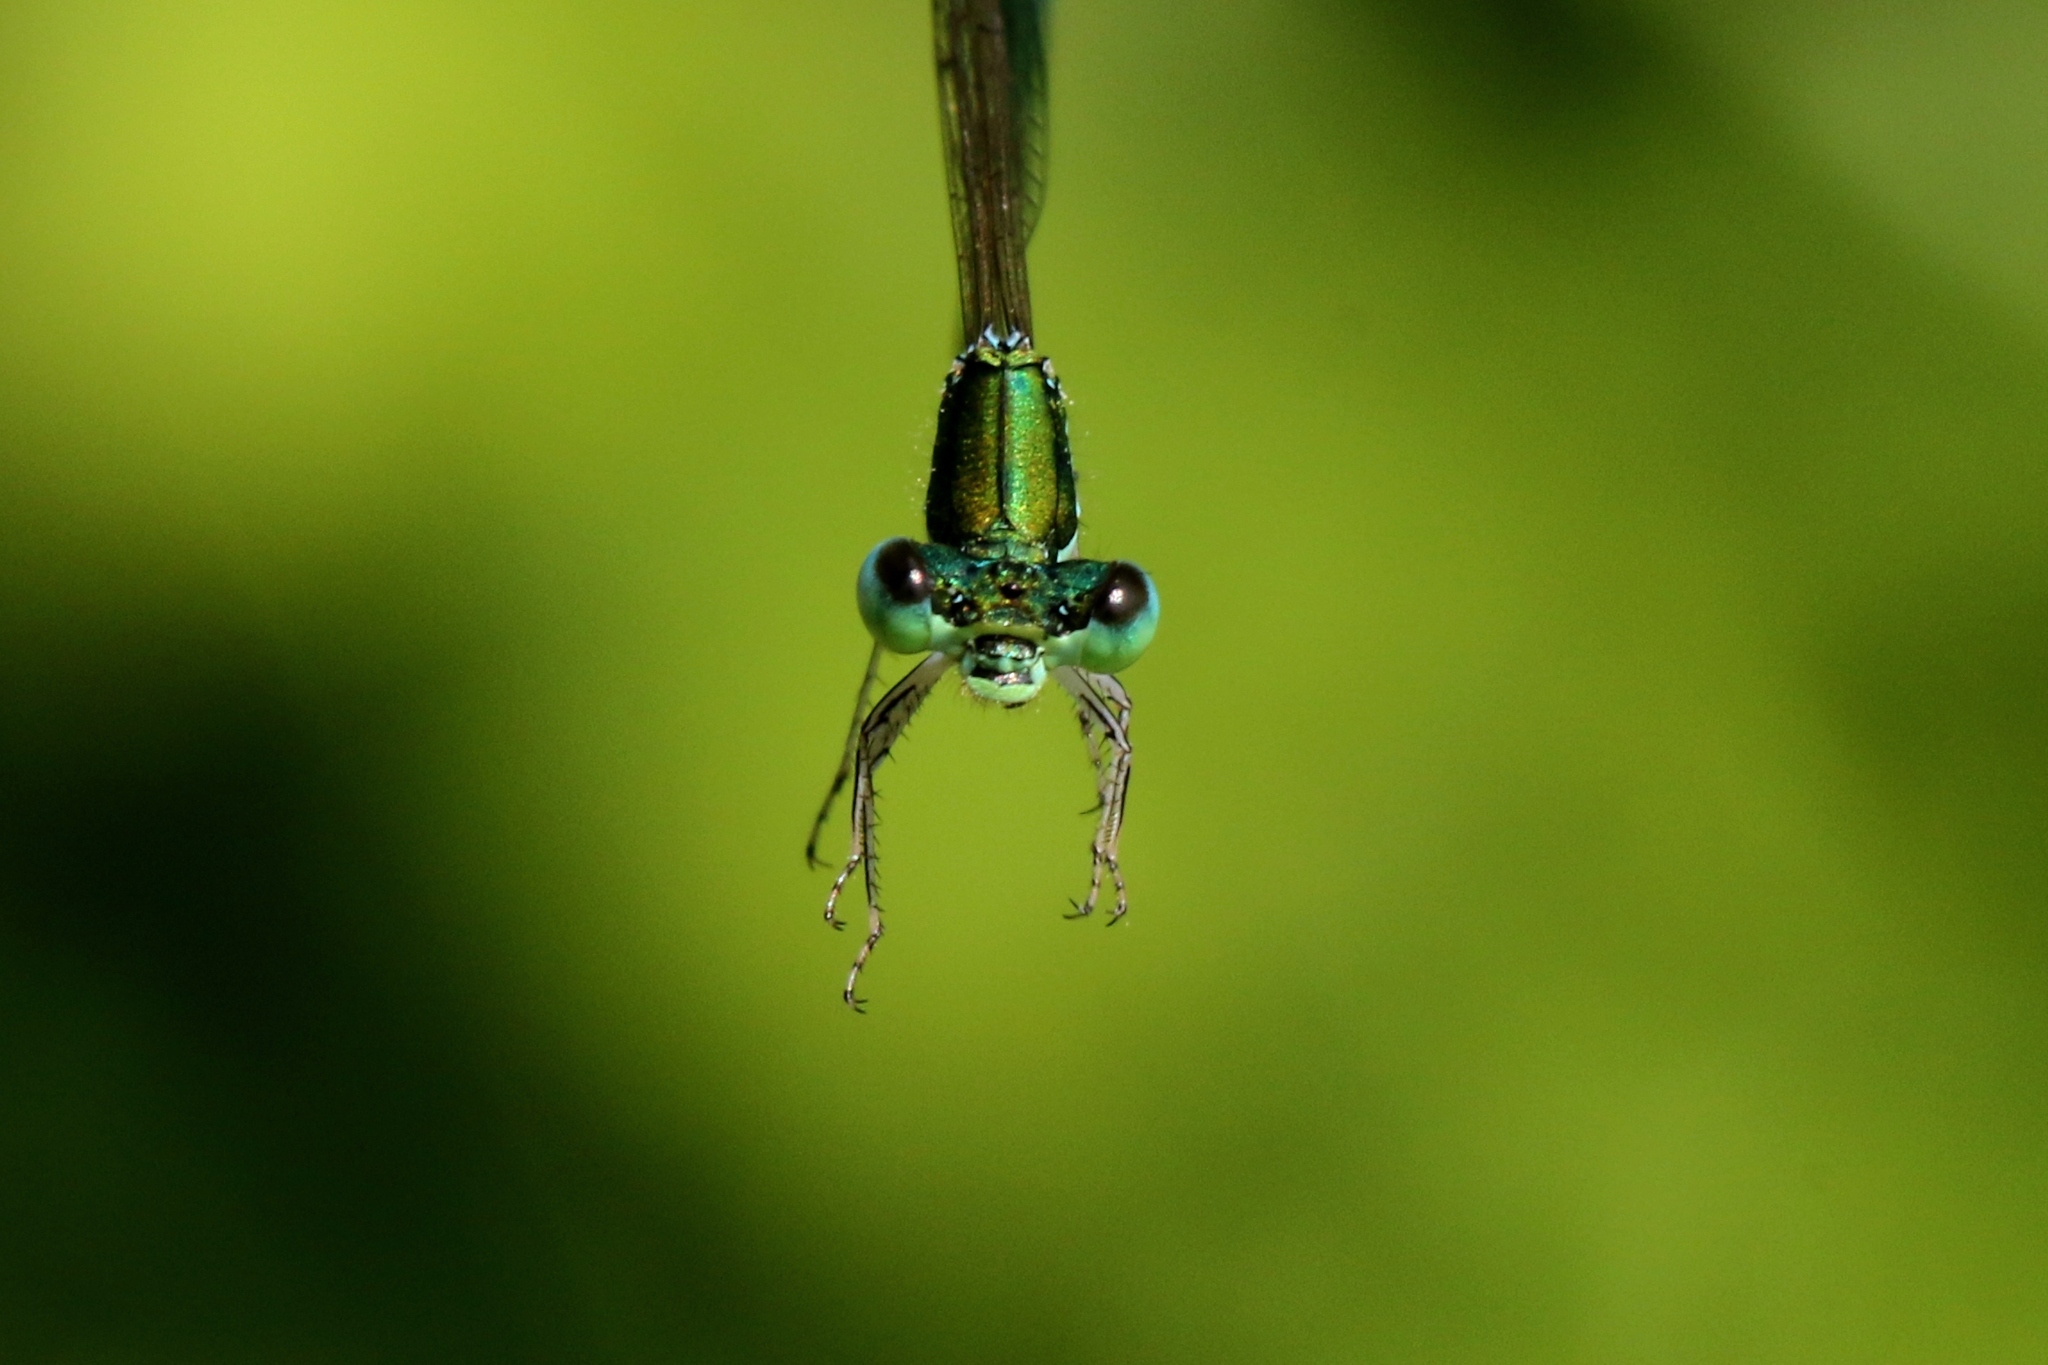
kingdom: Animalia
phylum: Arthropoda
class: Insecta
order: Odonata
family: Coenagrionidae
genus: Nehalennia
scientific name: Nehalennia irene
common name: Sedge sprite
